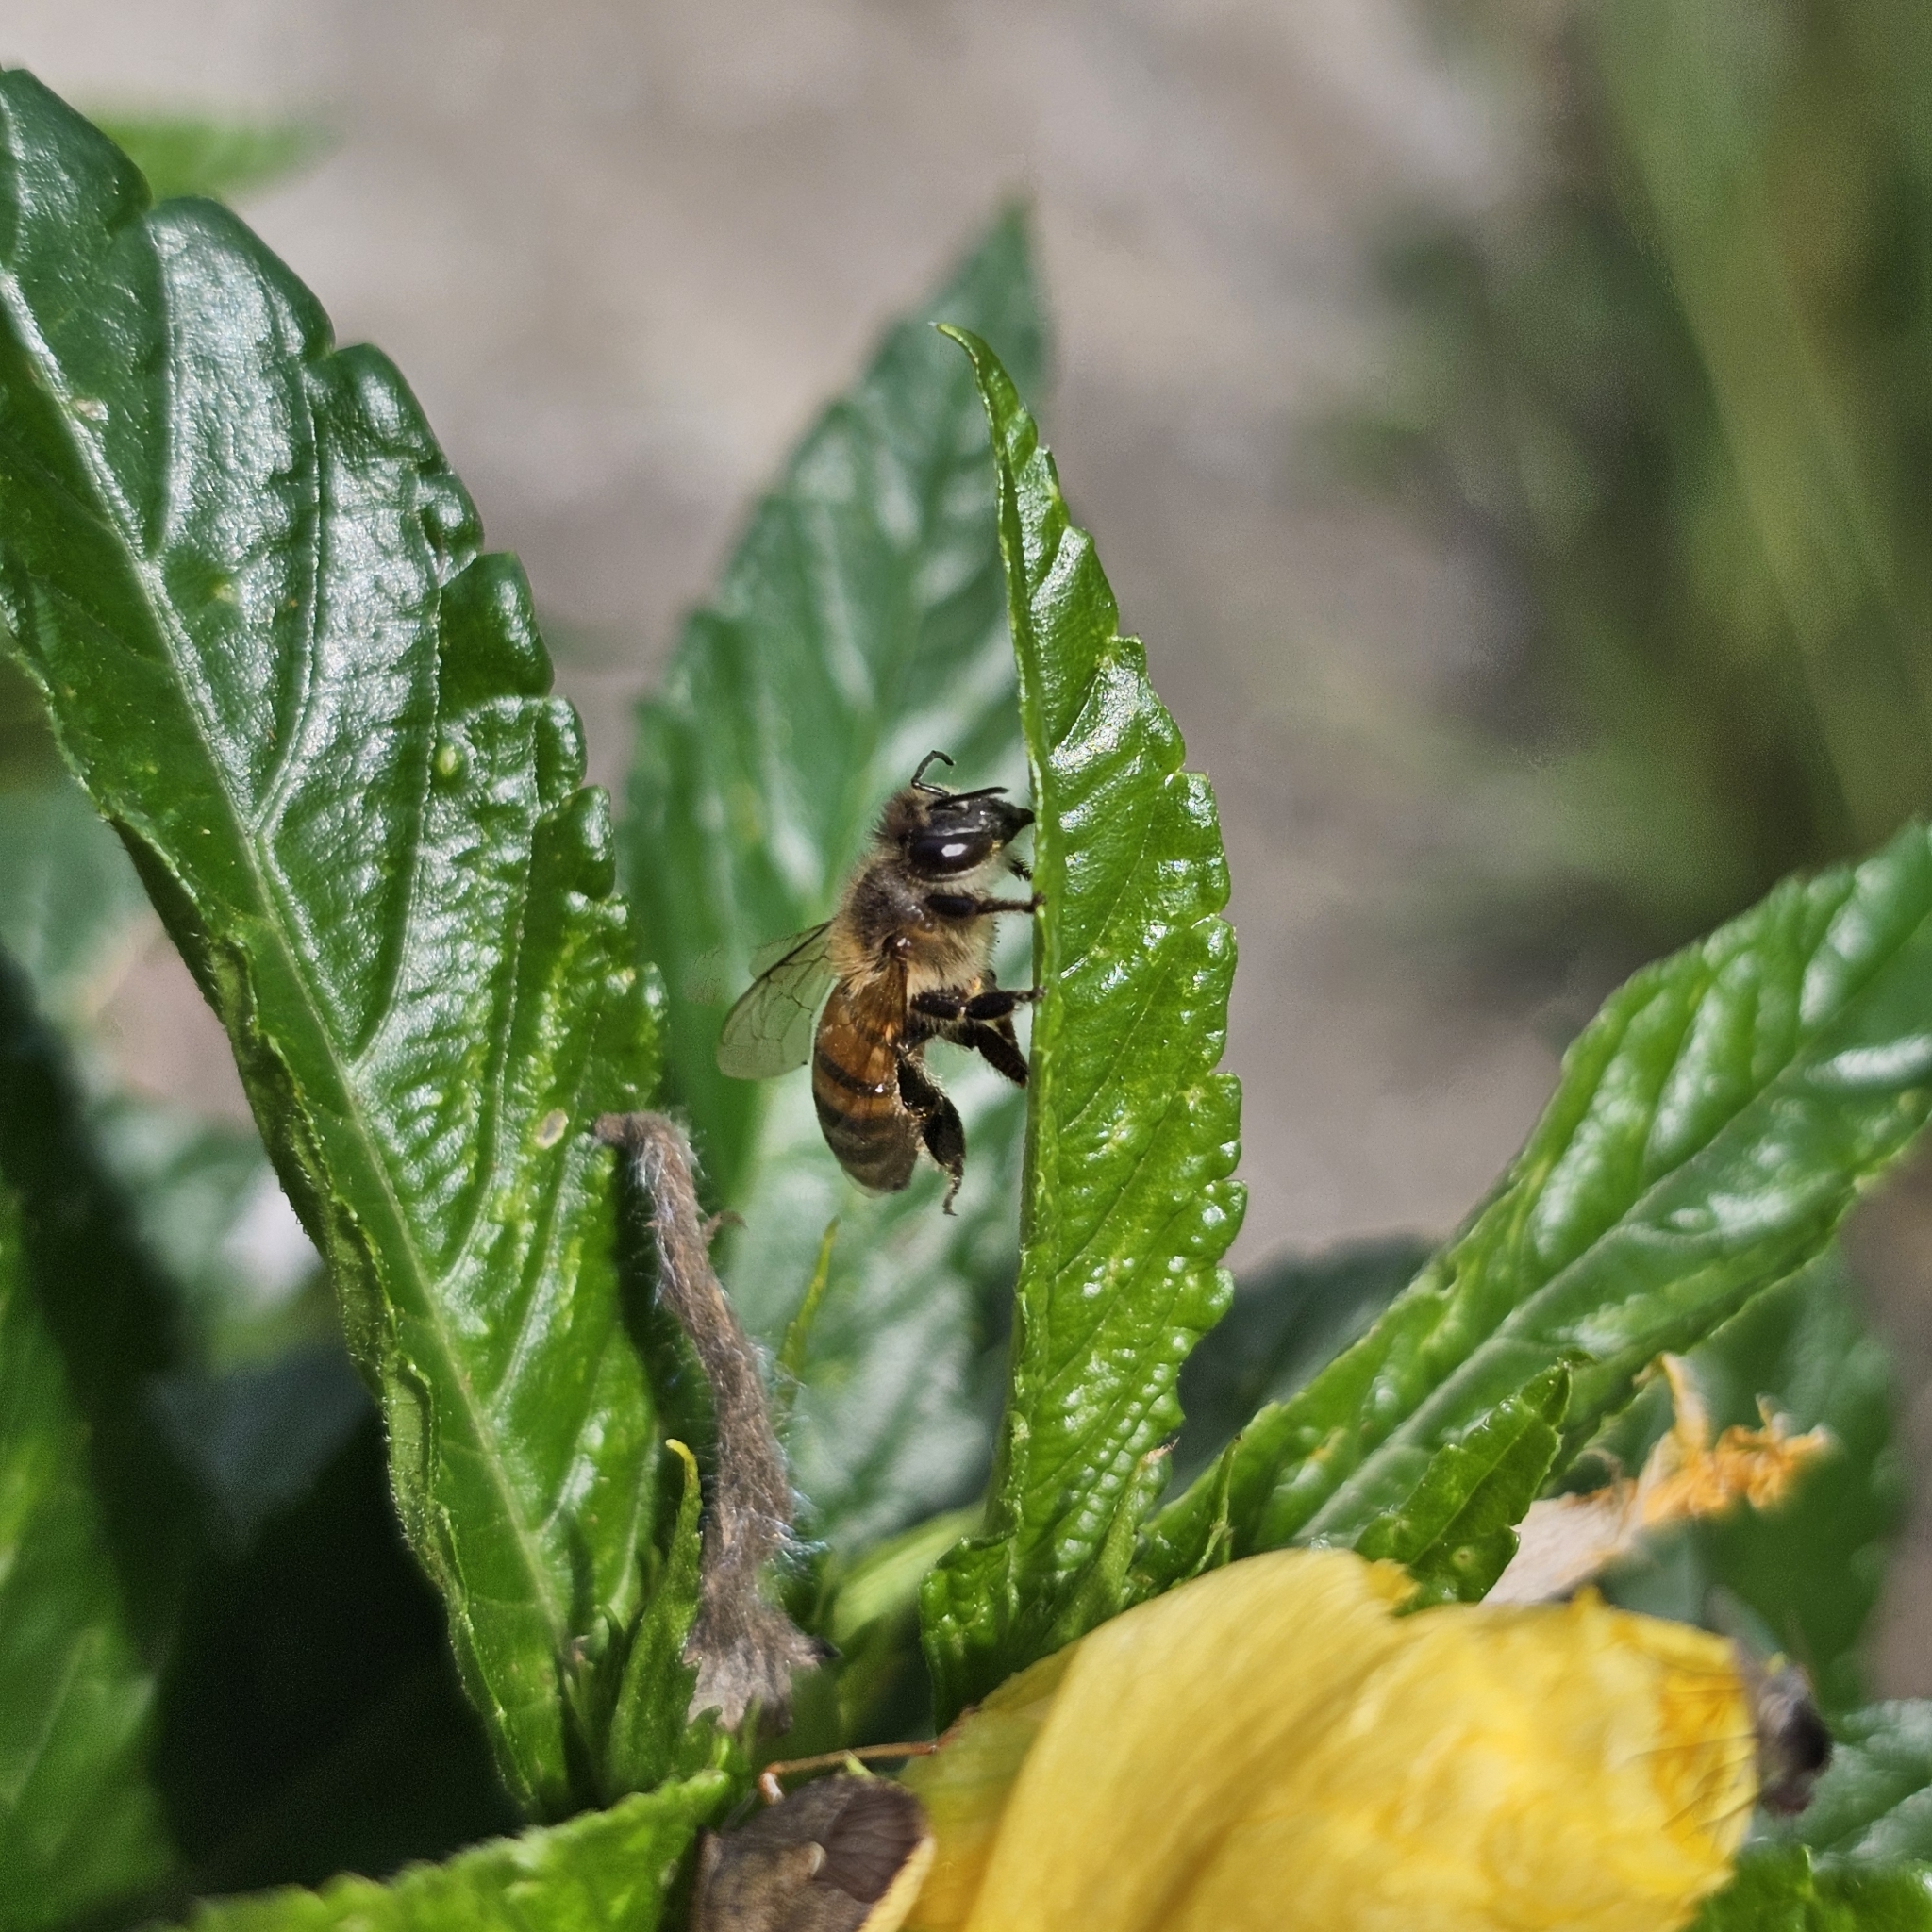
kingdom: Animalia
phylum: Arthropoda
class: Insecta
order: Hymenoptera
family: Apidae
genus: Apis
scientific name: Apis mellifera
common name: Honey bee
